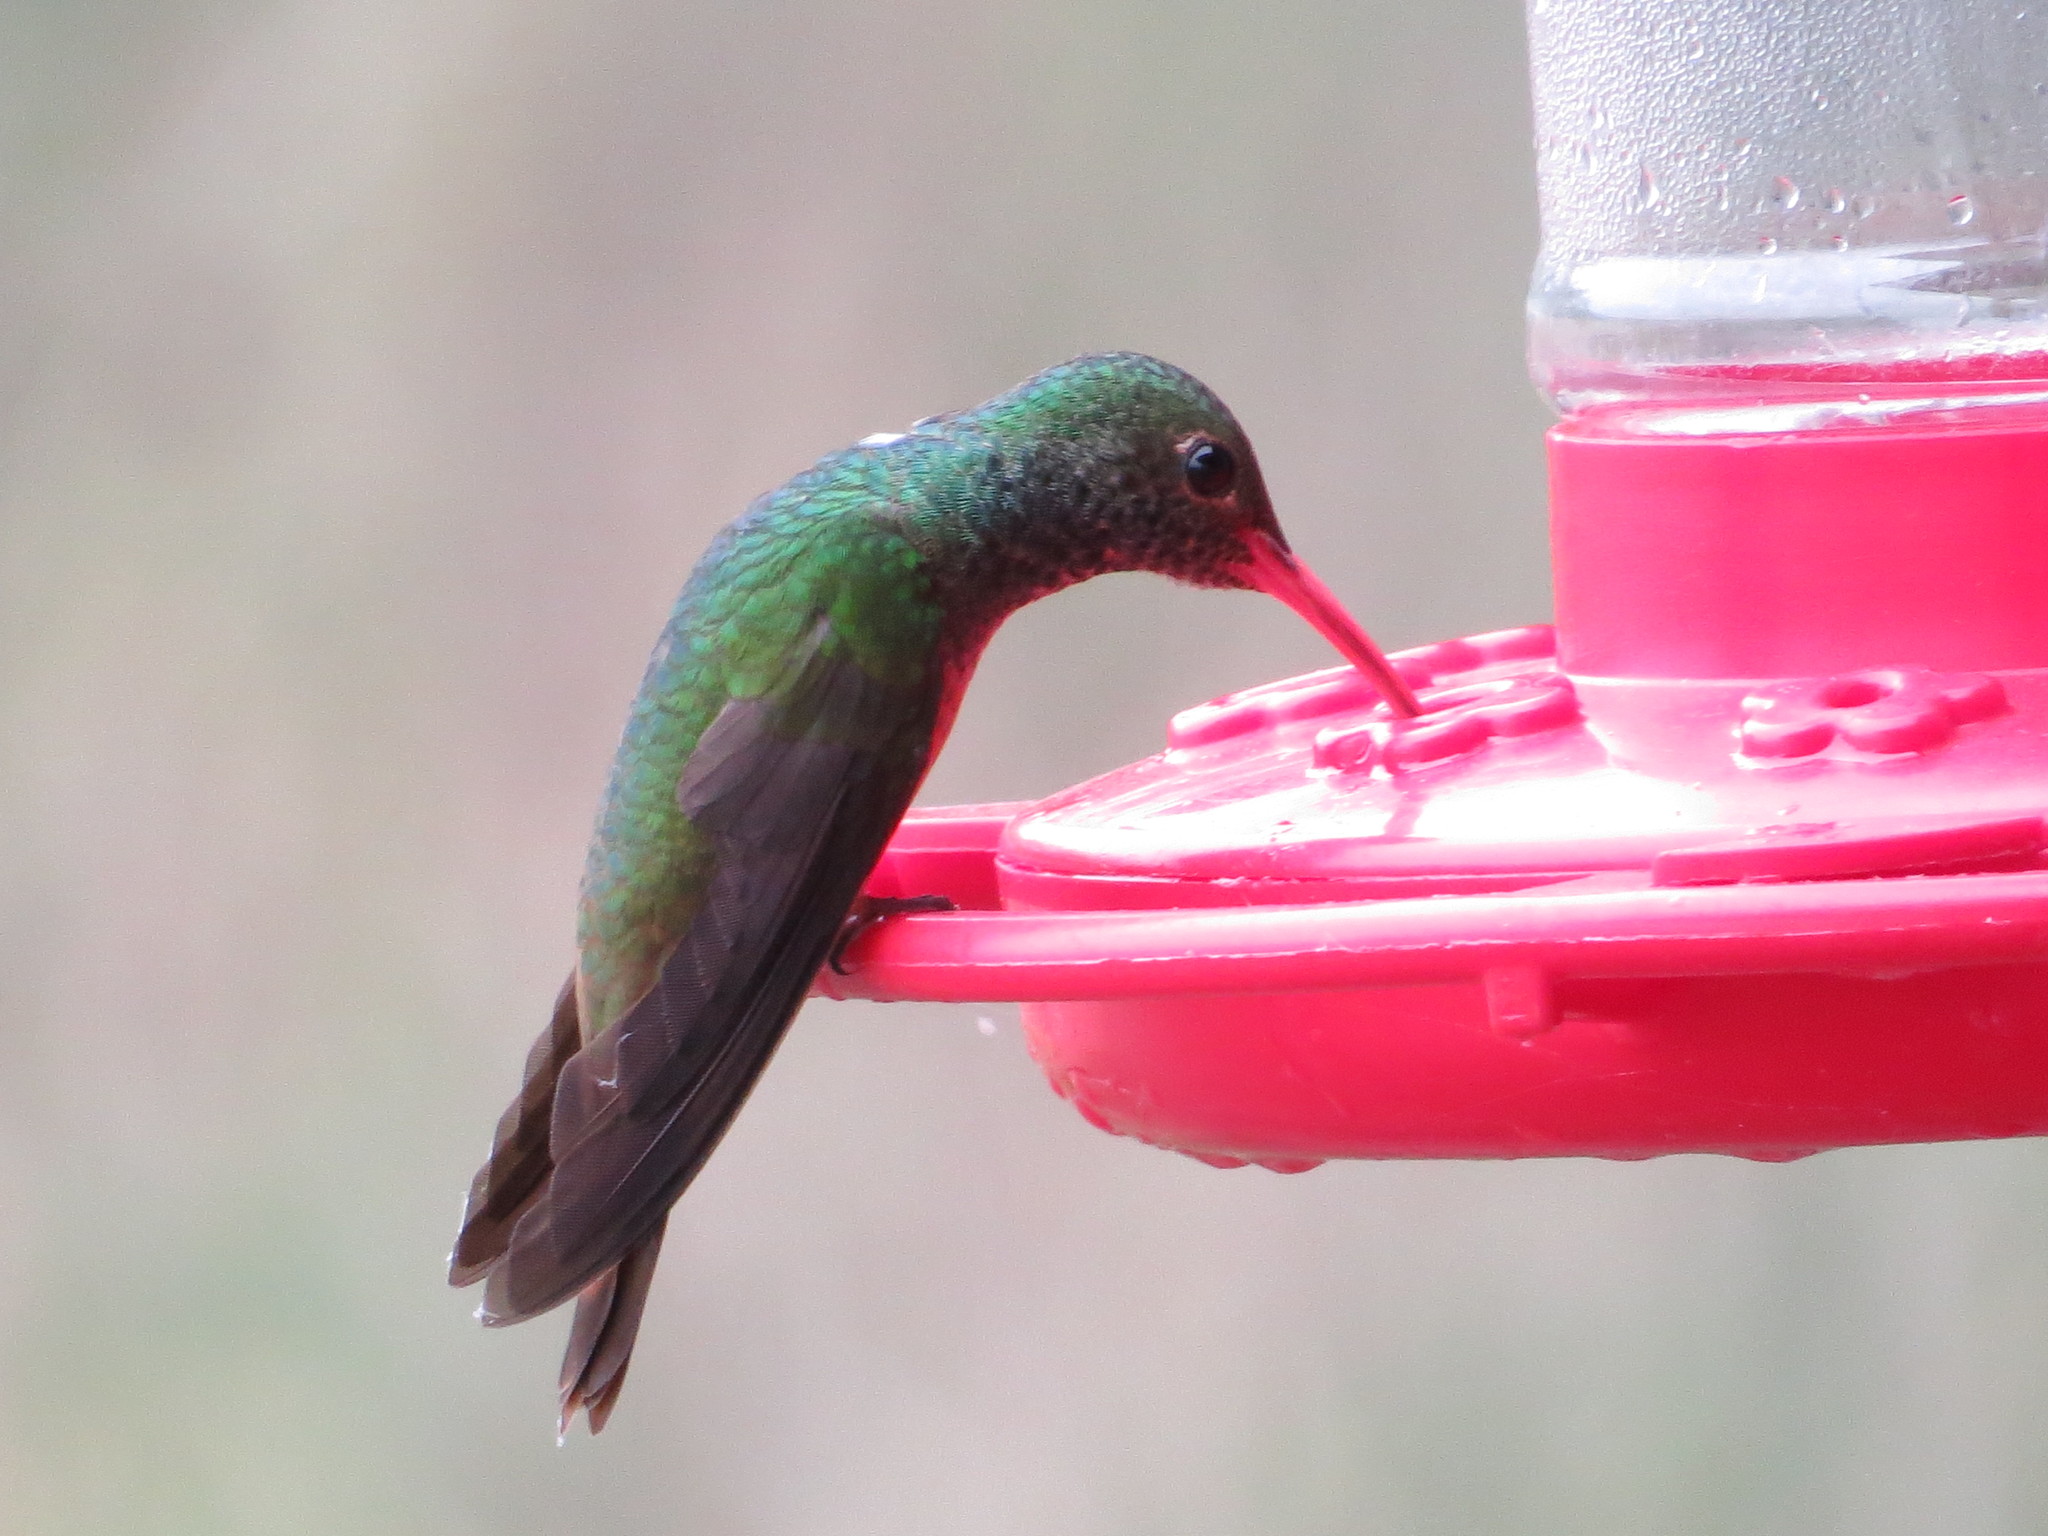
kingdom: Animalia
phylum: Chordata
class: Aves
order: Apodiformes
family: Trochilidae
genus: Amazilia
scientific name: Amazilia yucatanensis
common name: Buff-bellied hummingbird
